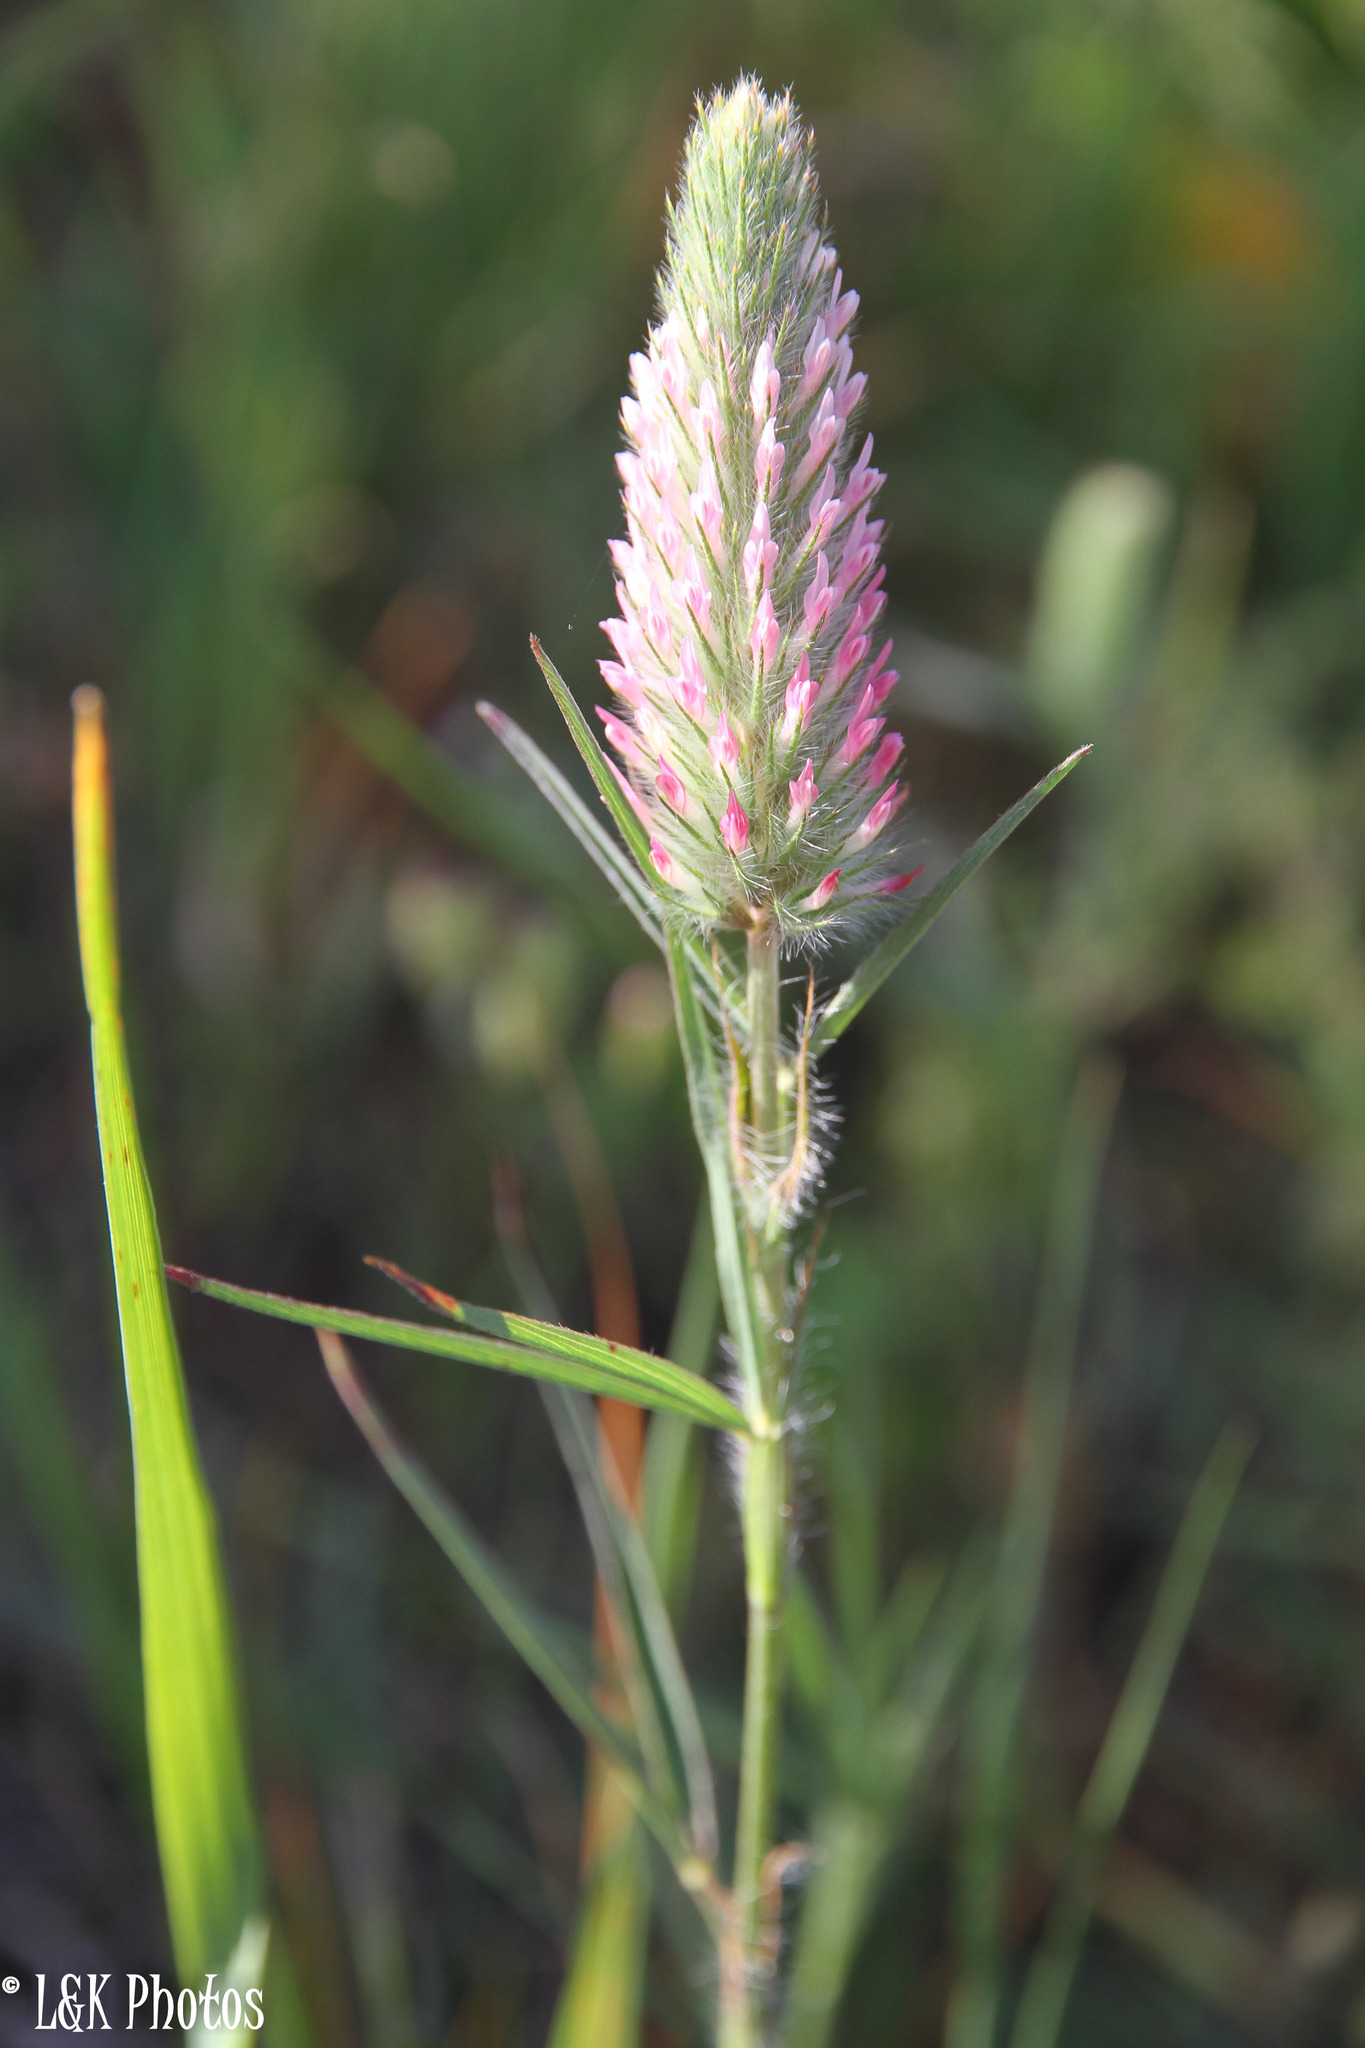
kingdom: Plantae
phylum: Tracheophyta
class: Magnoliopsida
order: Fabales
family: Fabaceae
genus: Trifolium
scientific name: Trifolium angustifolium
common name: Narrow clover
